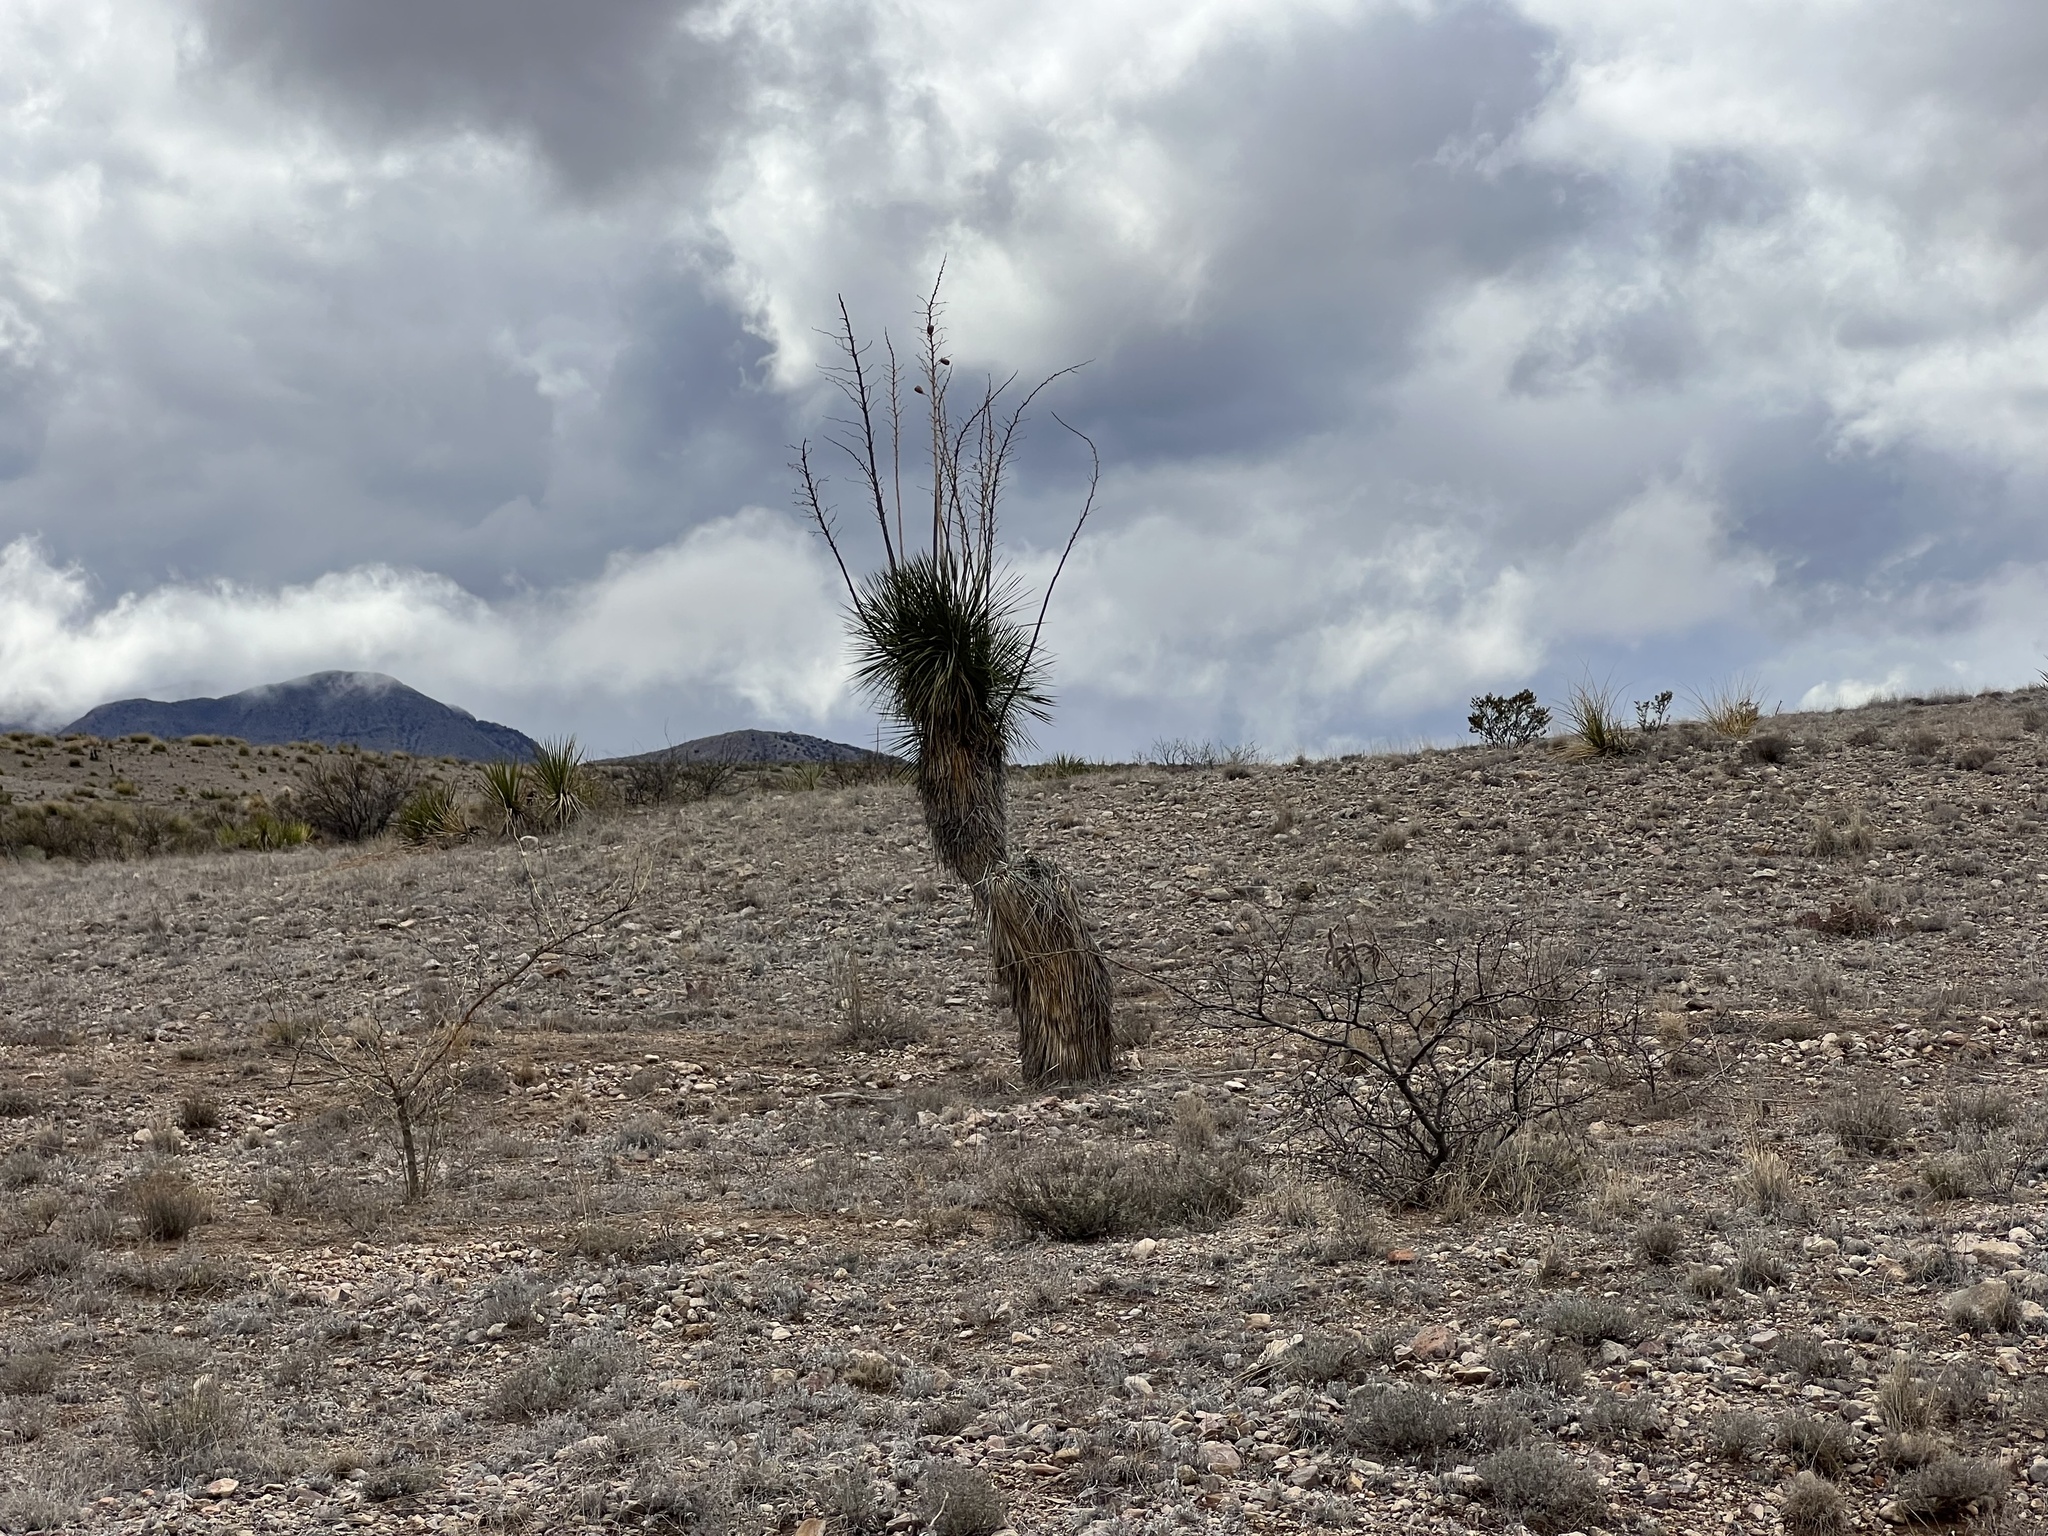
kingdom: Plantae
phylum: Tracheophyta
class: Liliopsida
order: Asparagales
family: Asparagaceae
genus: Yucca
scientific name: Yucca elata
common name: Palmella
